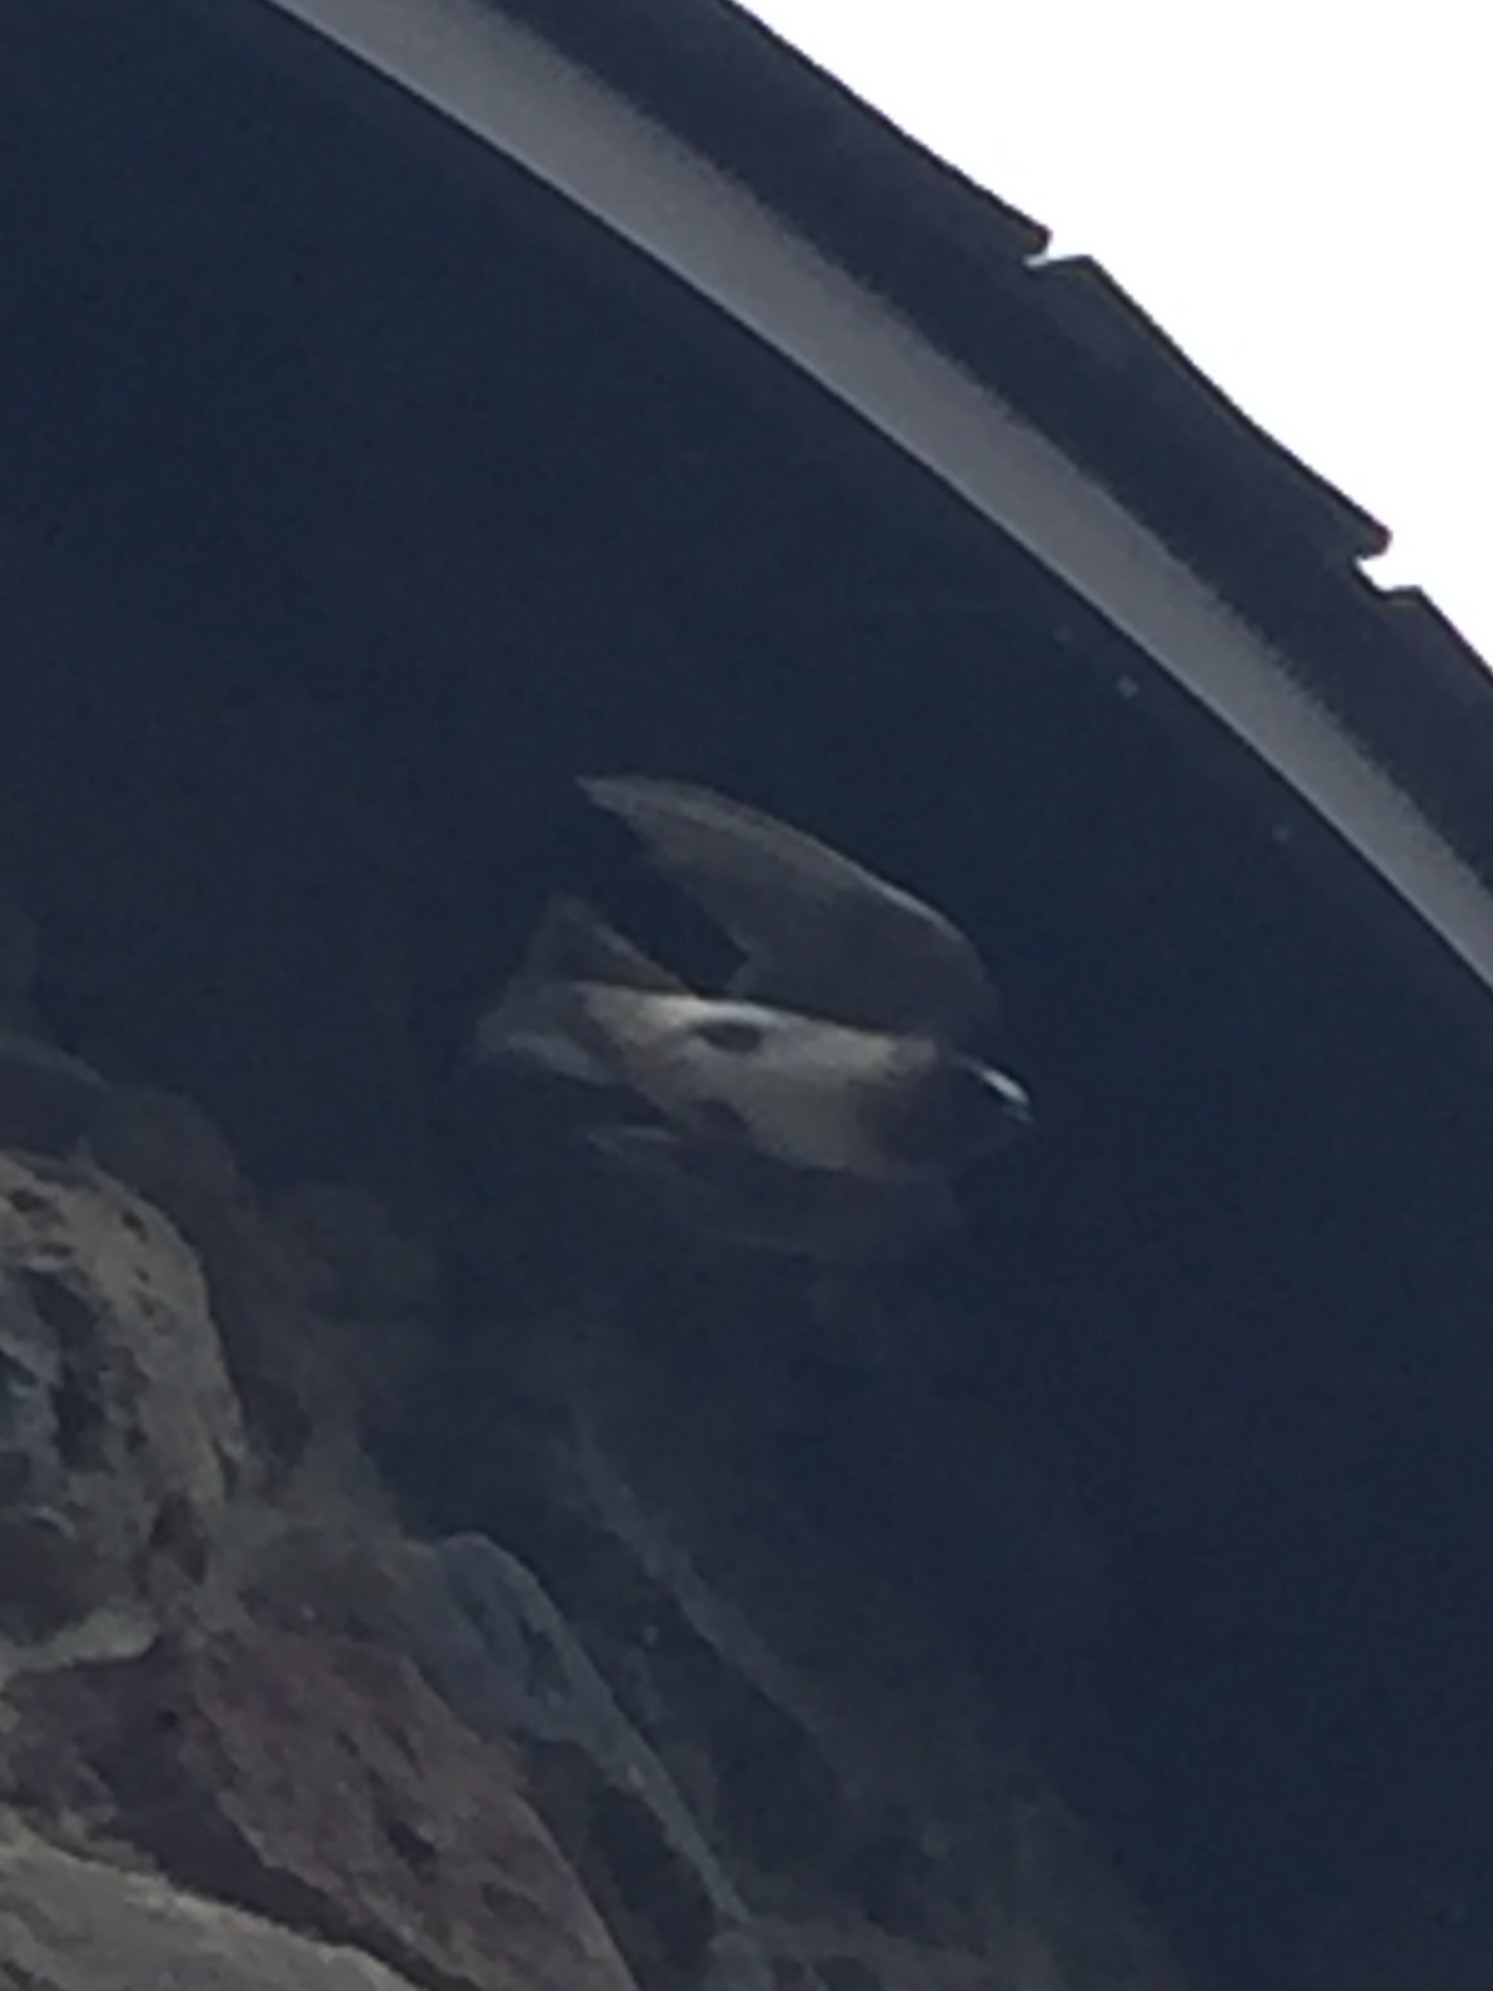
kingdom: Animalia
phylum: Chordata
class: Aves
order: Passeriformes
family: Hirundinidae
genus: Petrochelidon
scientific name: Petrochelidon pyrrhonota
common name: American cliff swallow
